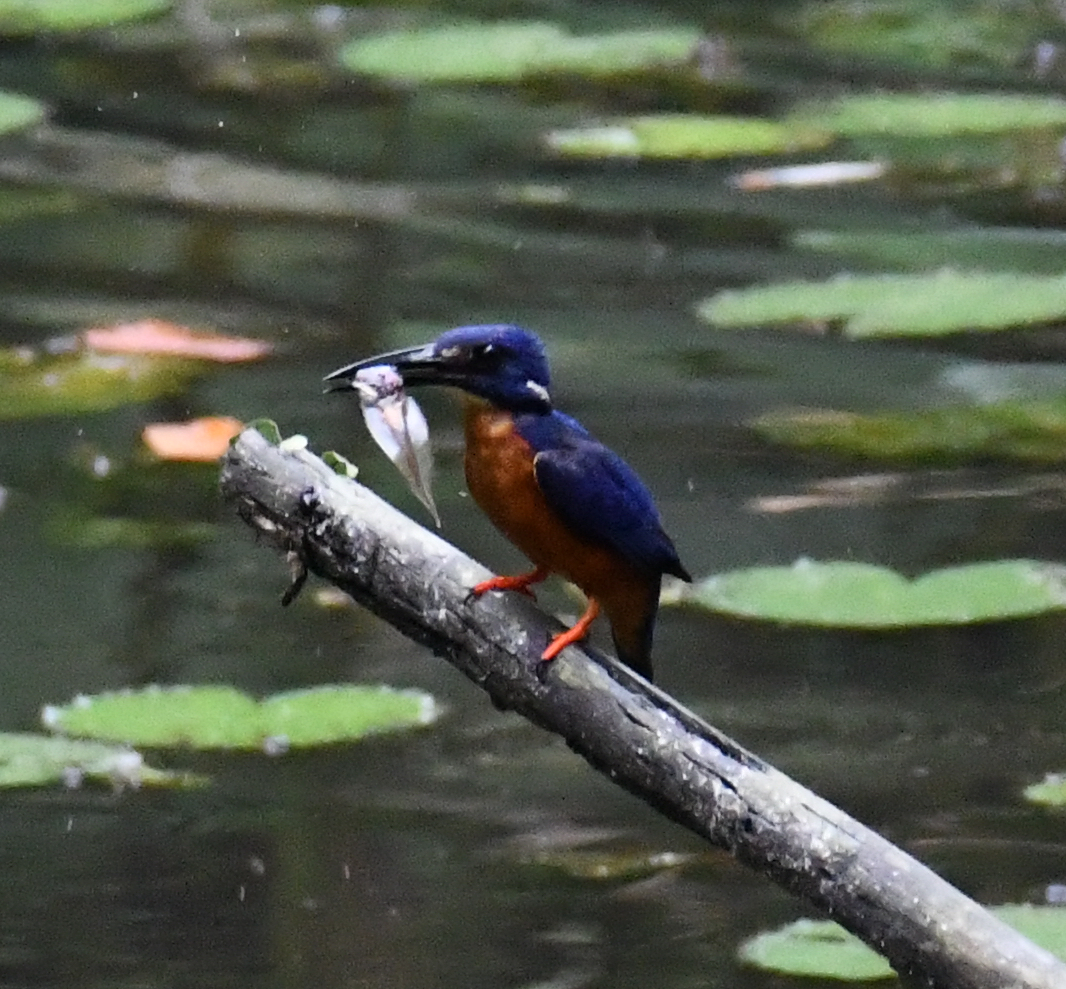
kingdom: Animalia
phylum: Chordata
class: Aves
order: Coraciiformes
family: Alcedinidae
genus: Alcedo
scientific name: Alcedo quadribrachys
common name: Shining-blue kingfisher
